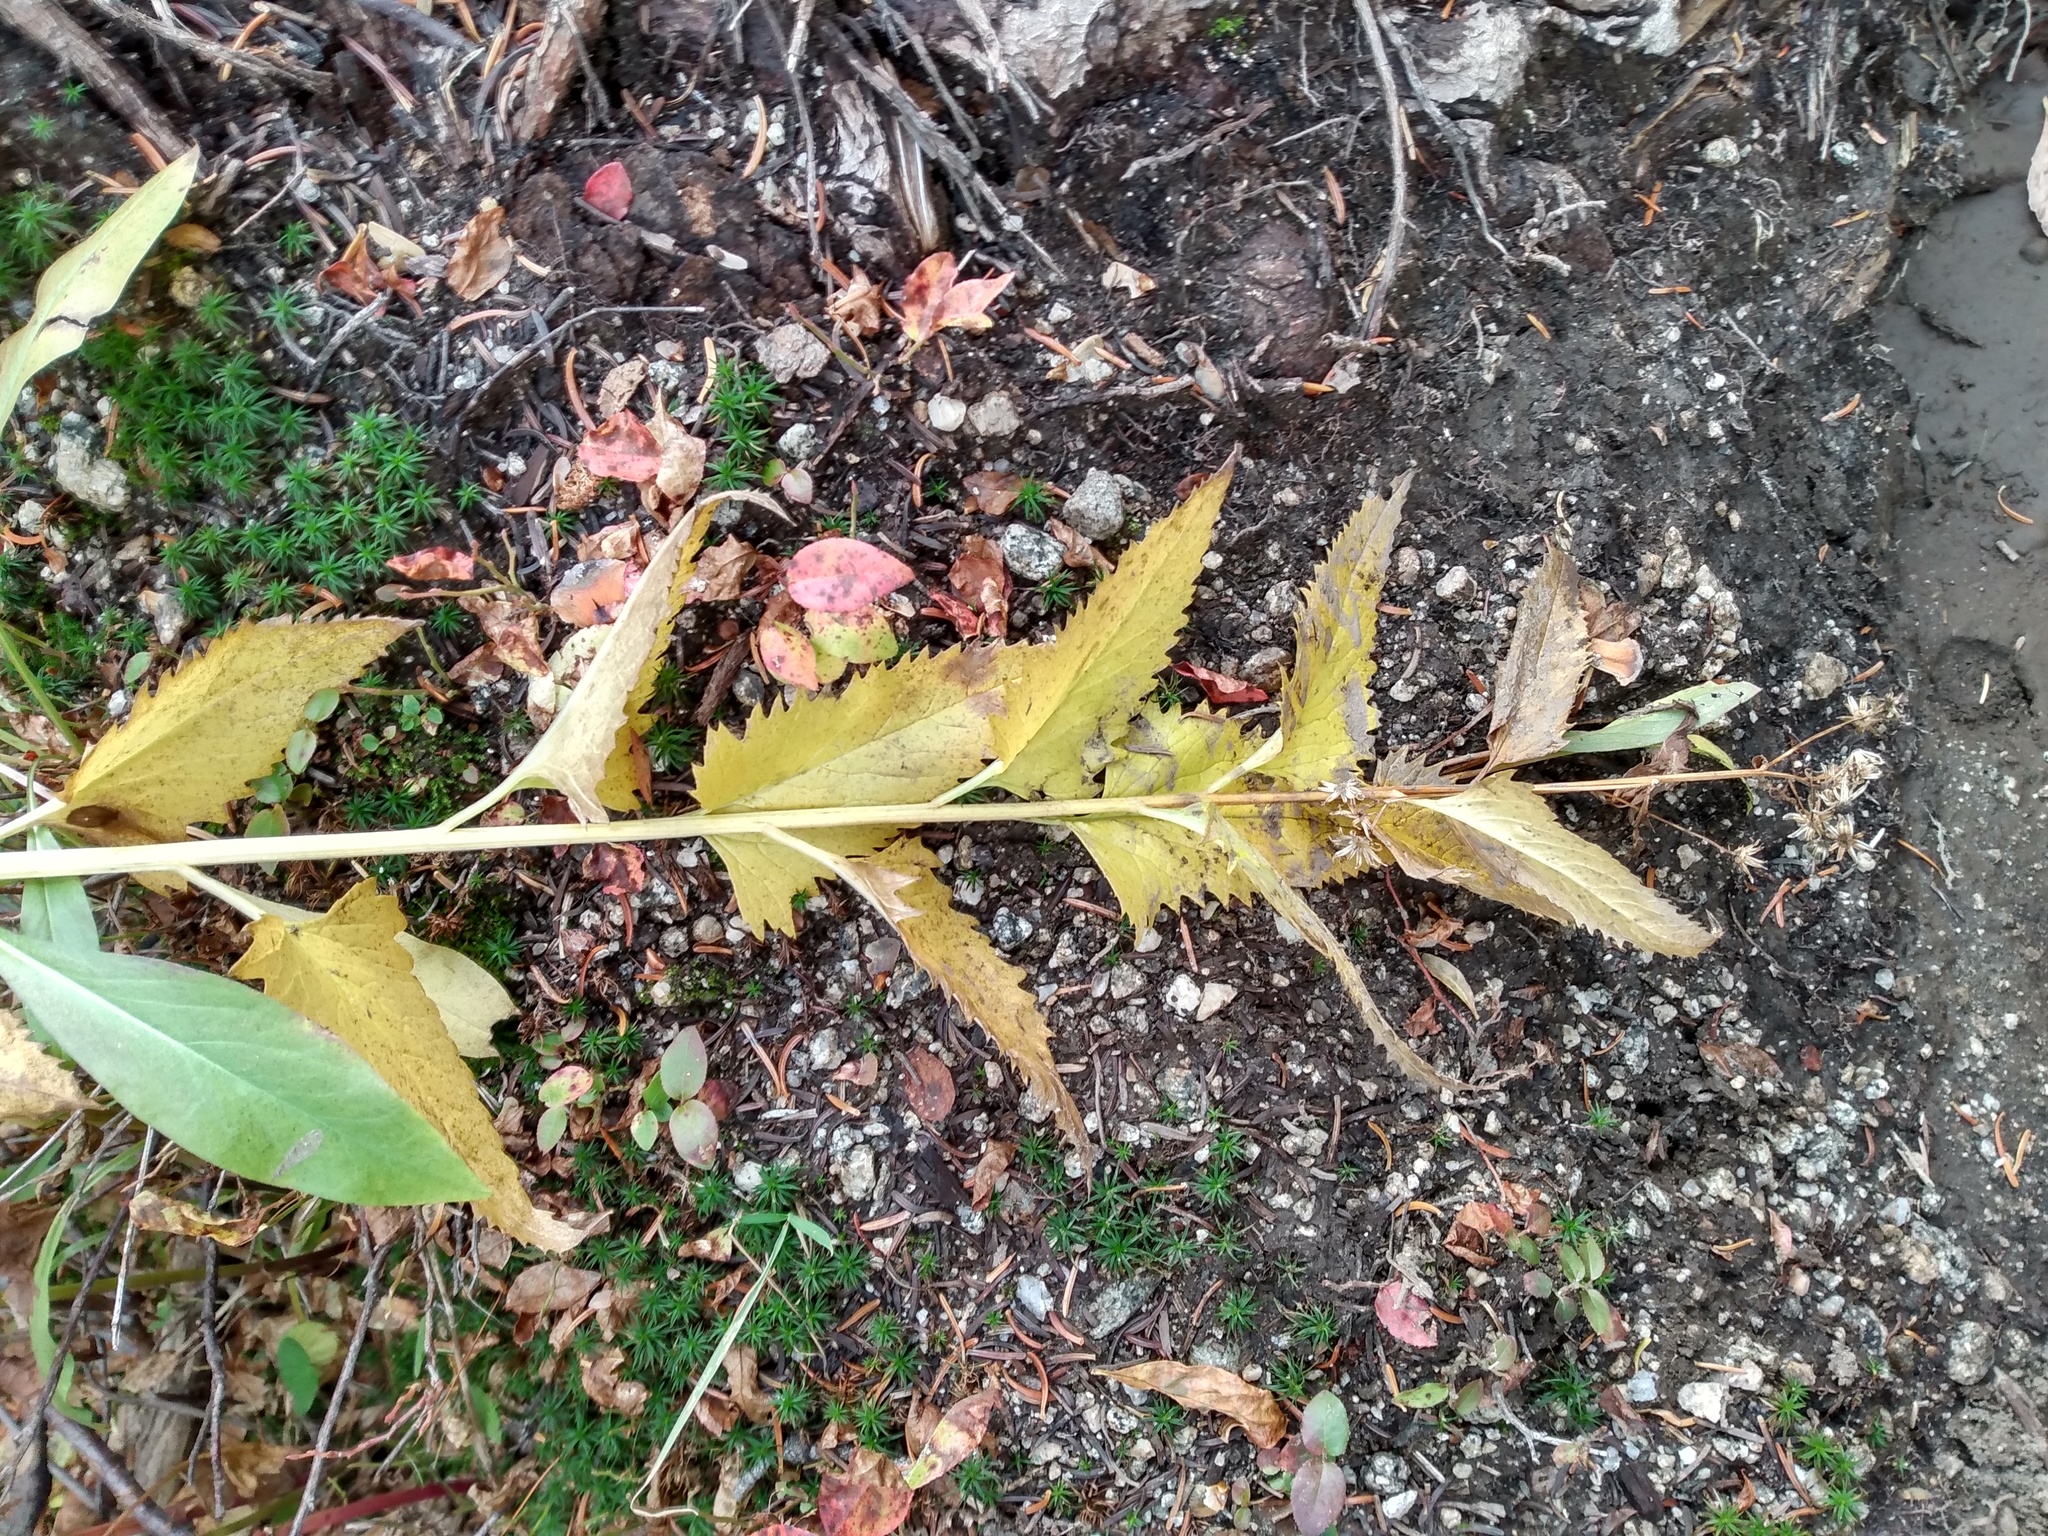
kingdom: Plantae
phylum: Tracheophyta
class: Magnoliopsida
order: Asterales
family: Asteraceae
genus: Senecio
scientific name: Senecio triangularis
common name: Arrowleaf butterweed
